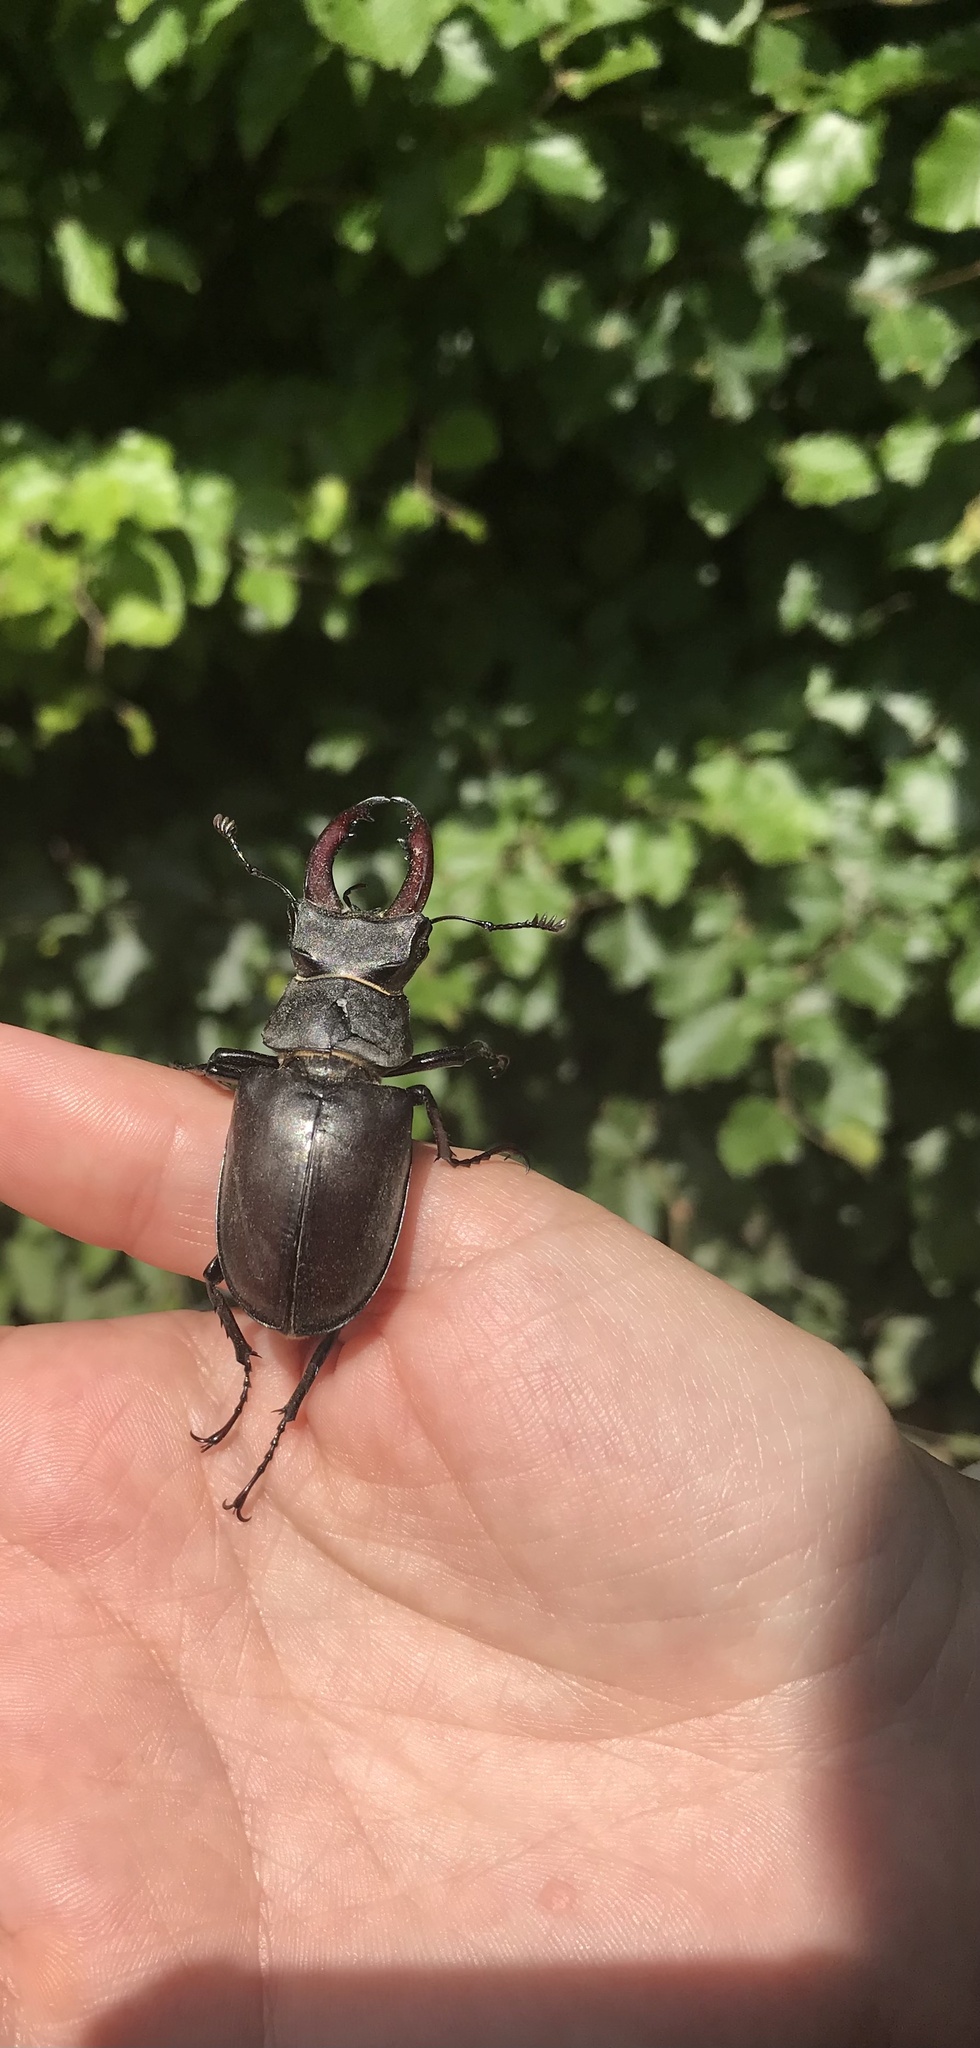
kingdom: Animalia
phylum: Arthropoda
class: Insecta
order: Coleoptera
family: Lucanidae
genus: Lucanus
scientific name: Lucanus cervus
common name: Stag beetle
